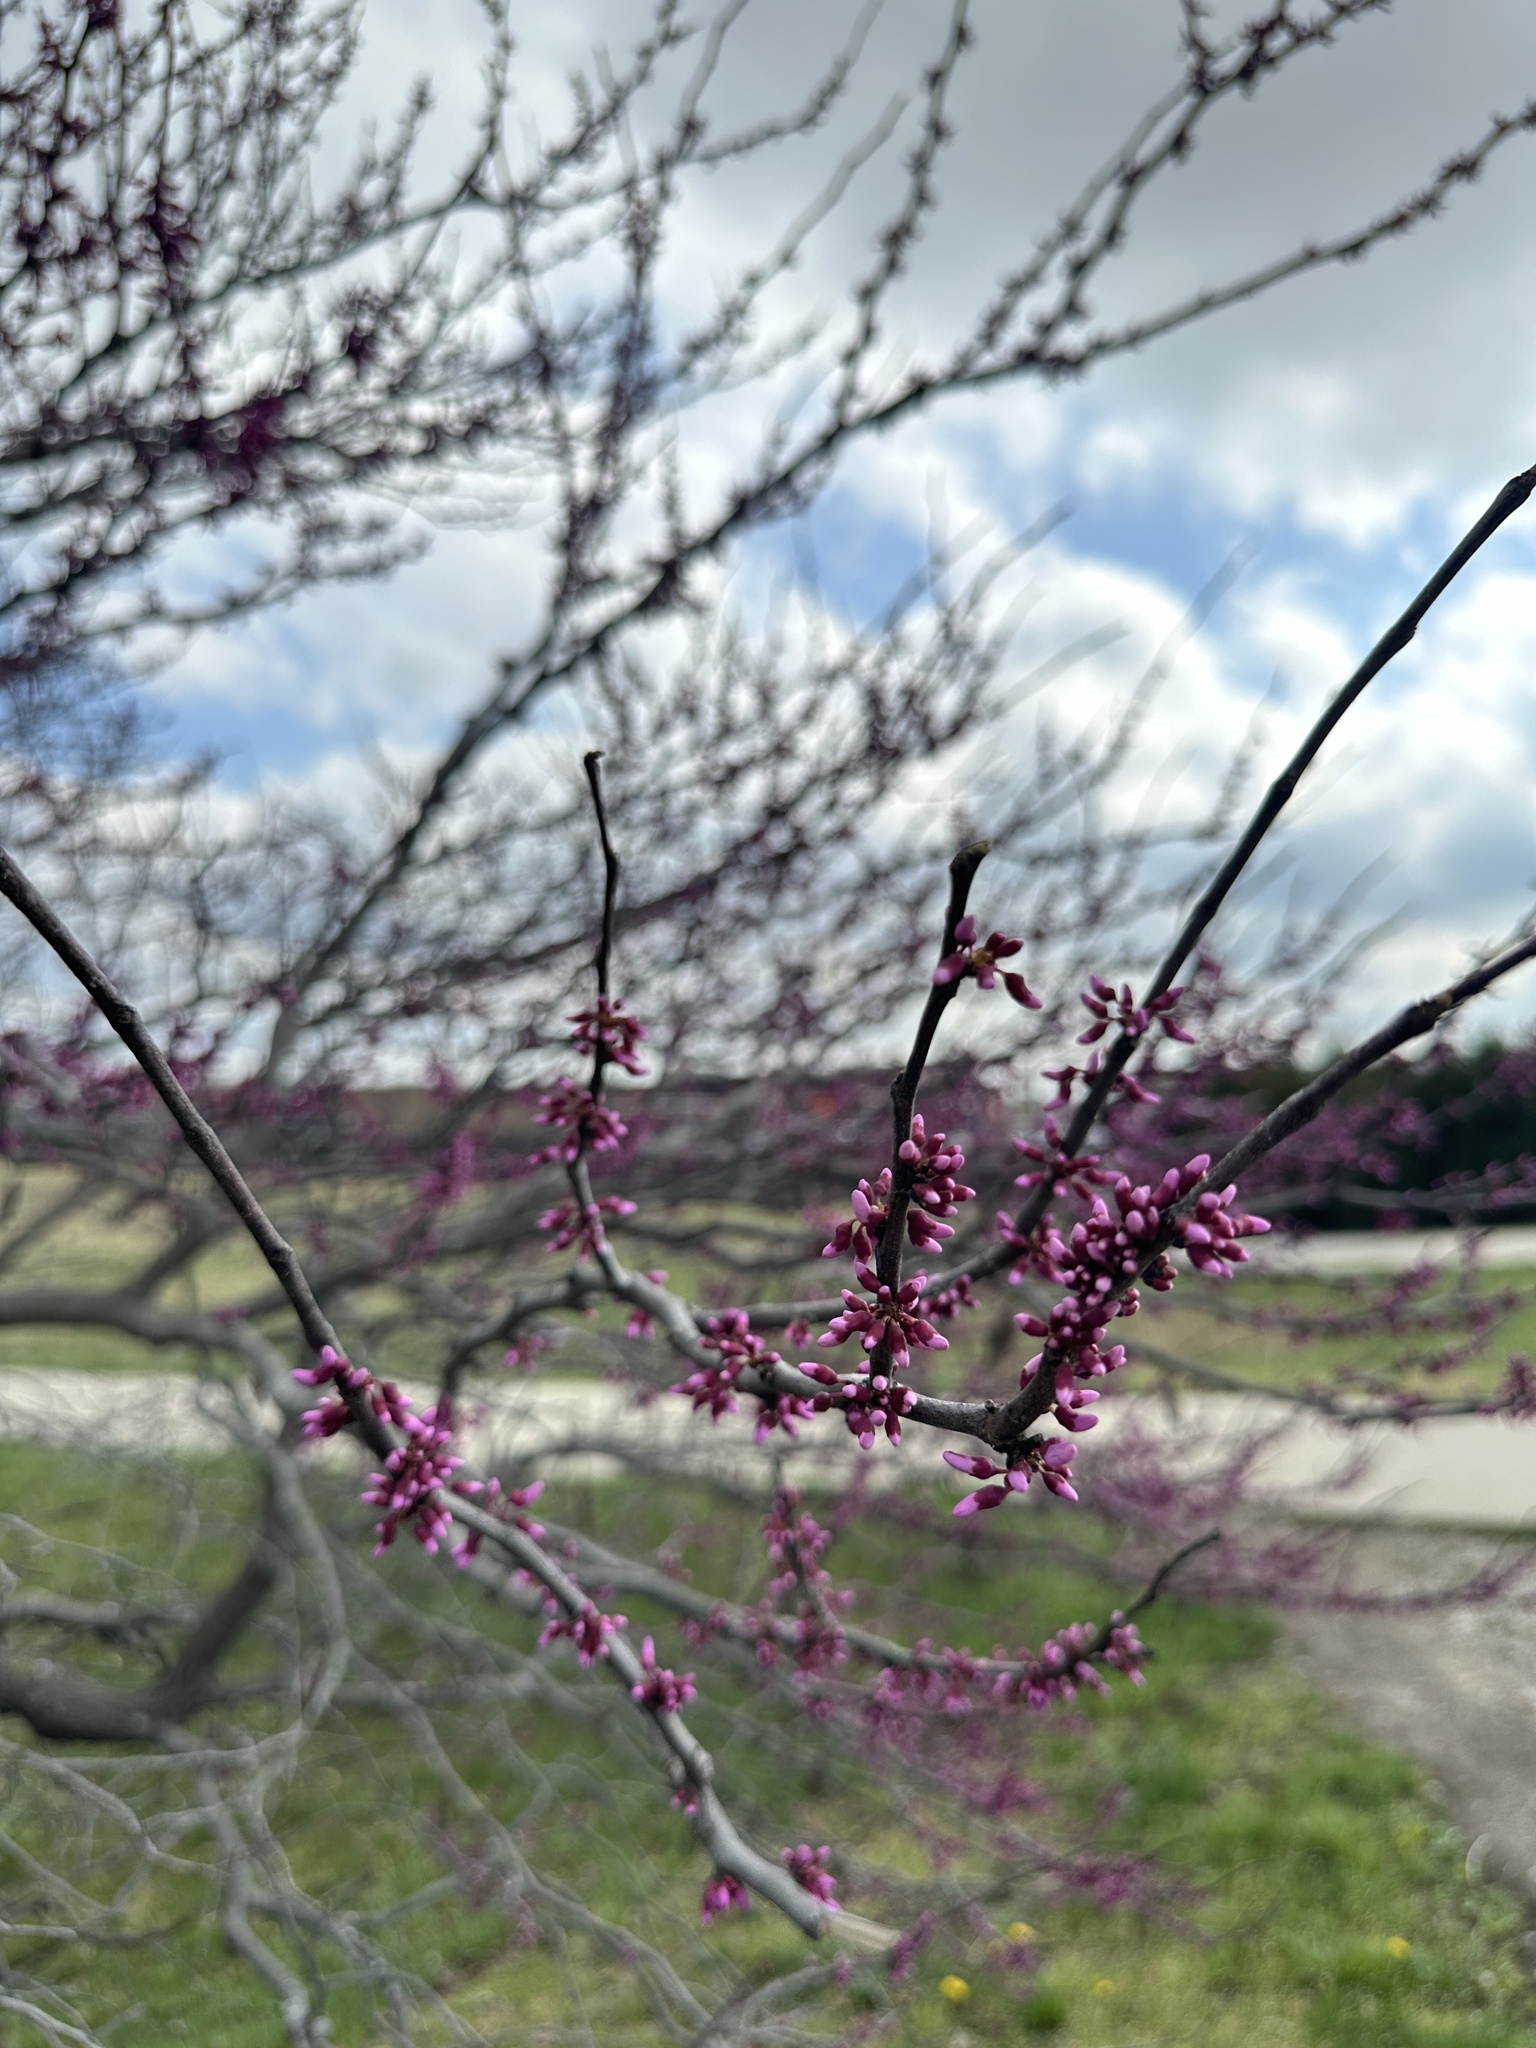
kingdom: Plantae
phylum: Tracheophyta
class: Magnoliopsida
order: Fabales
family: Fabaceae
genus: Cercis
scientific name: Cercis canadensis
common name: Eastern redbud
